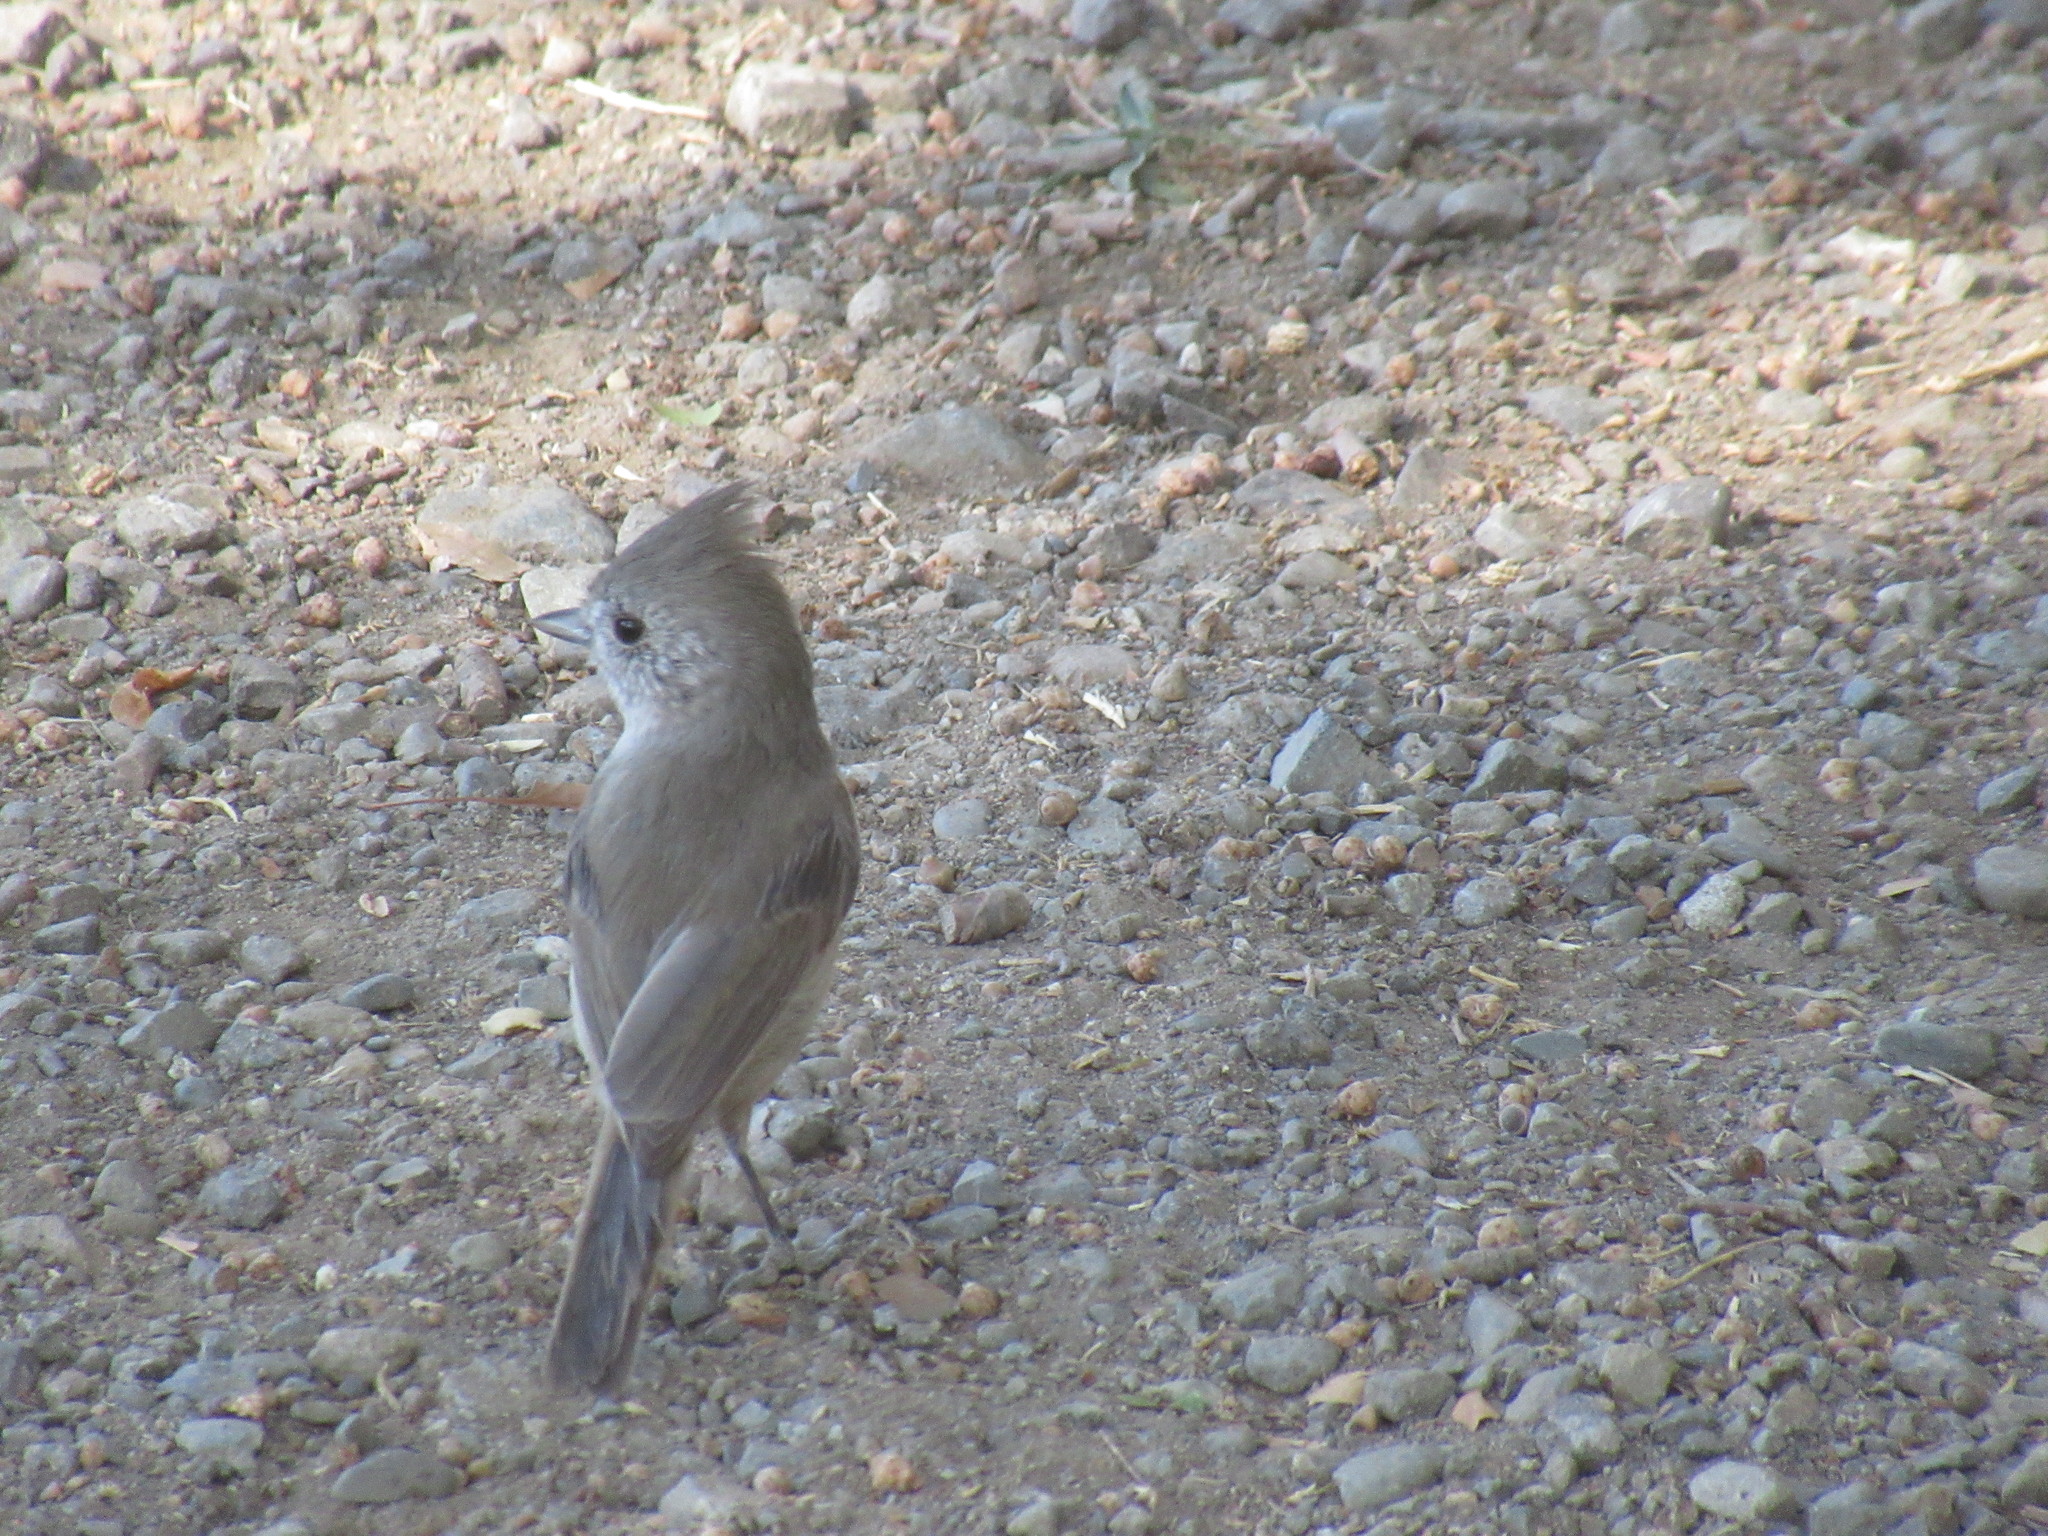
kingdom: Animalia
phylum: Chordata
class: Aves
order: Passeriformes
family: Paridae
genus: Baeolophus
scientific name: Baeolophus inornatus
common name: Oak titmouse
